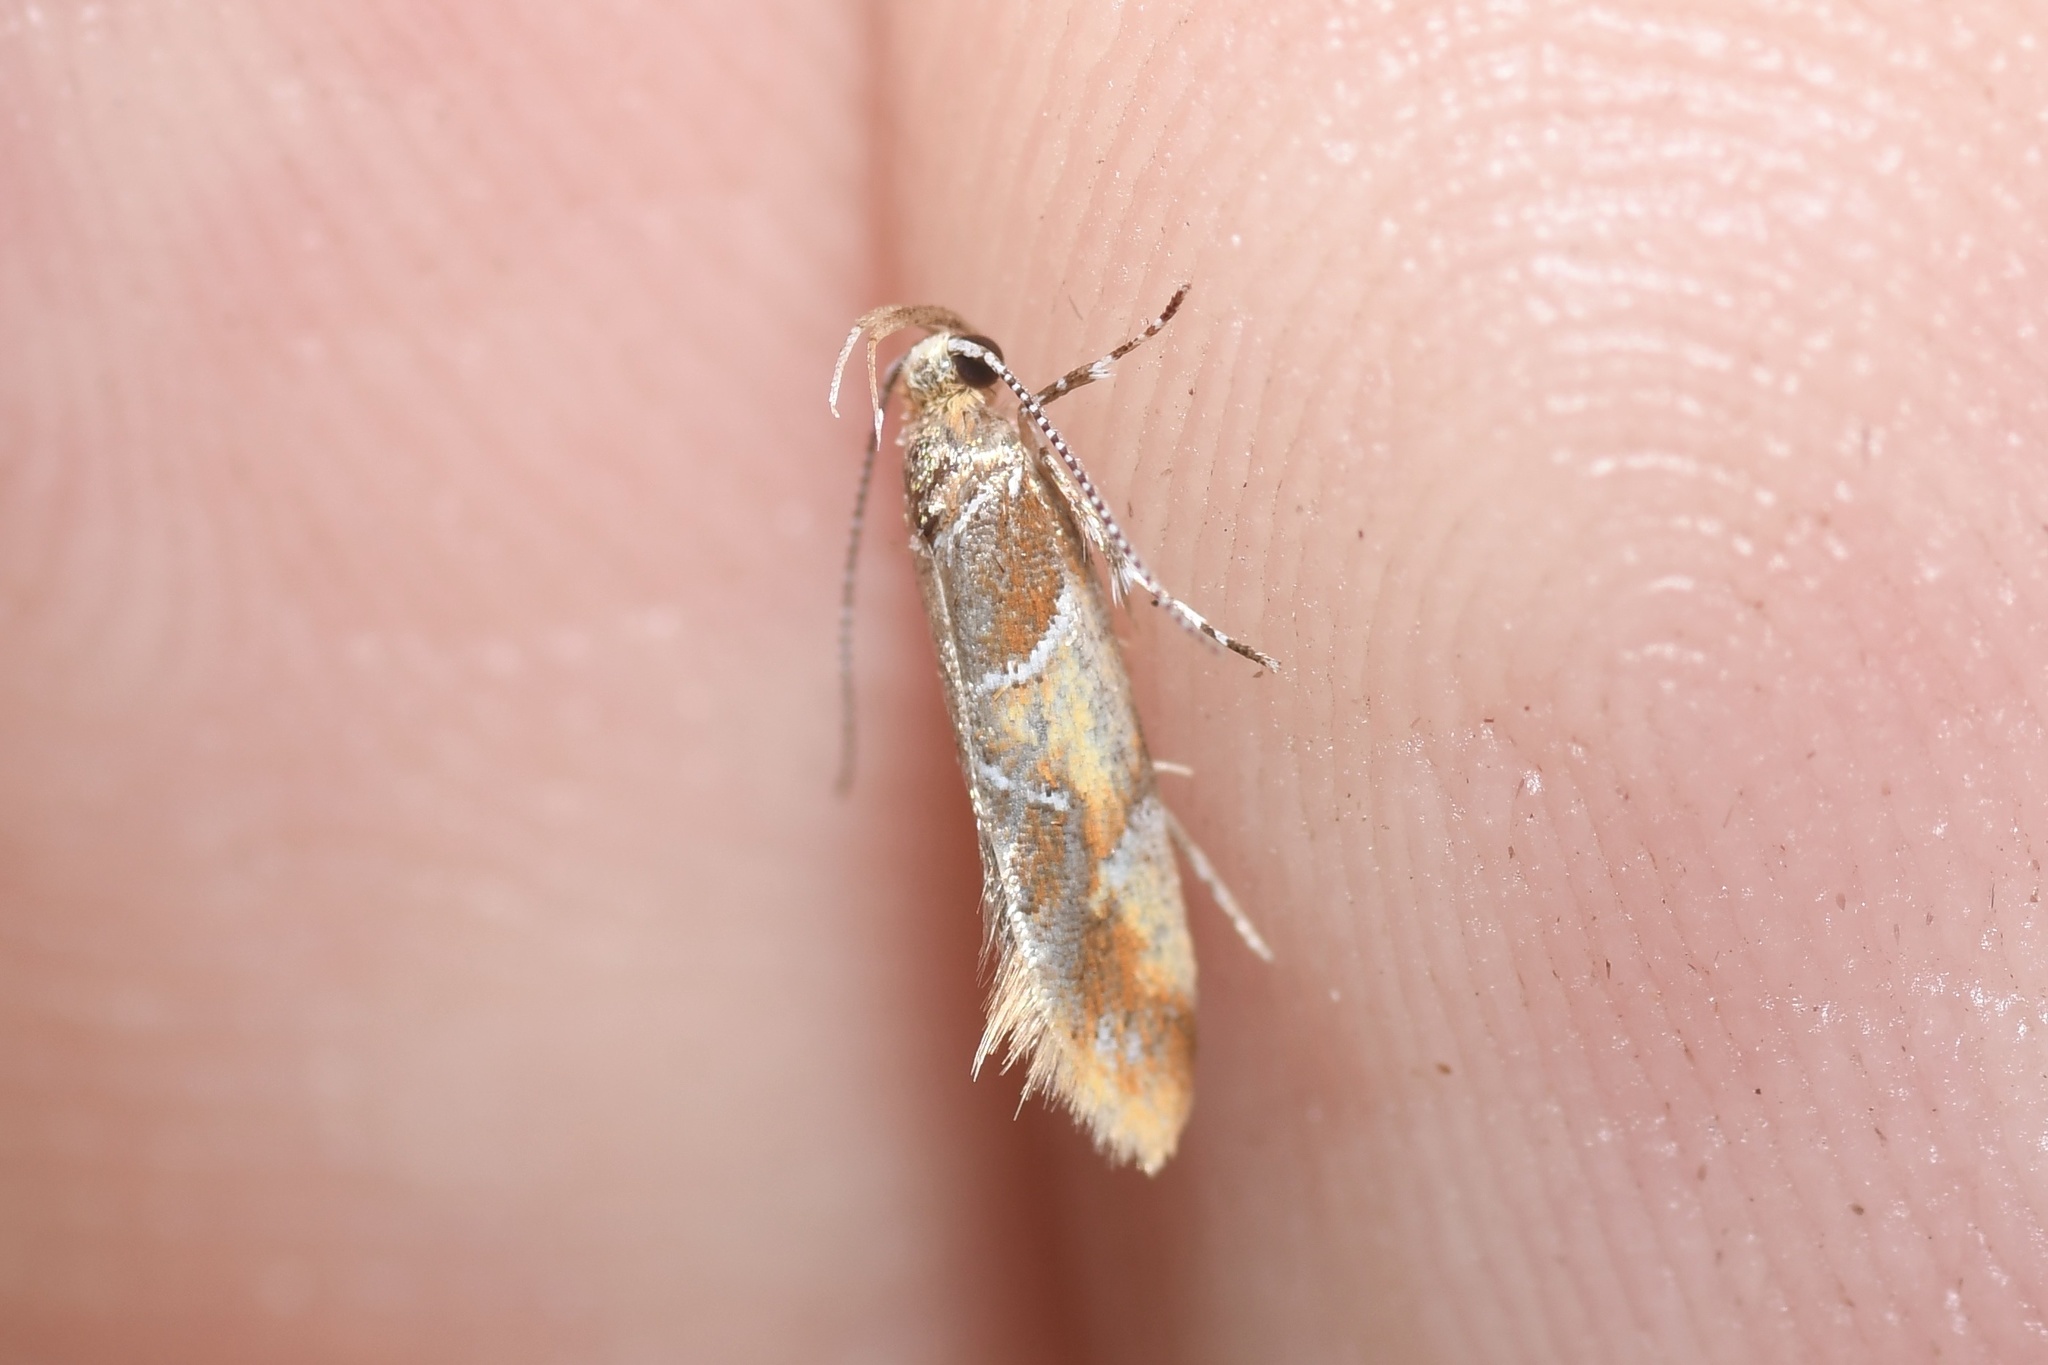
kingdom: Animalia
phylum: Arthropoda
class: Insecta
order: Lepidoptera
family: Oecophoridae
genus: Callima
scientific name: Callima argenticinctella
